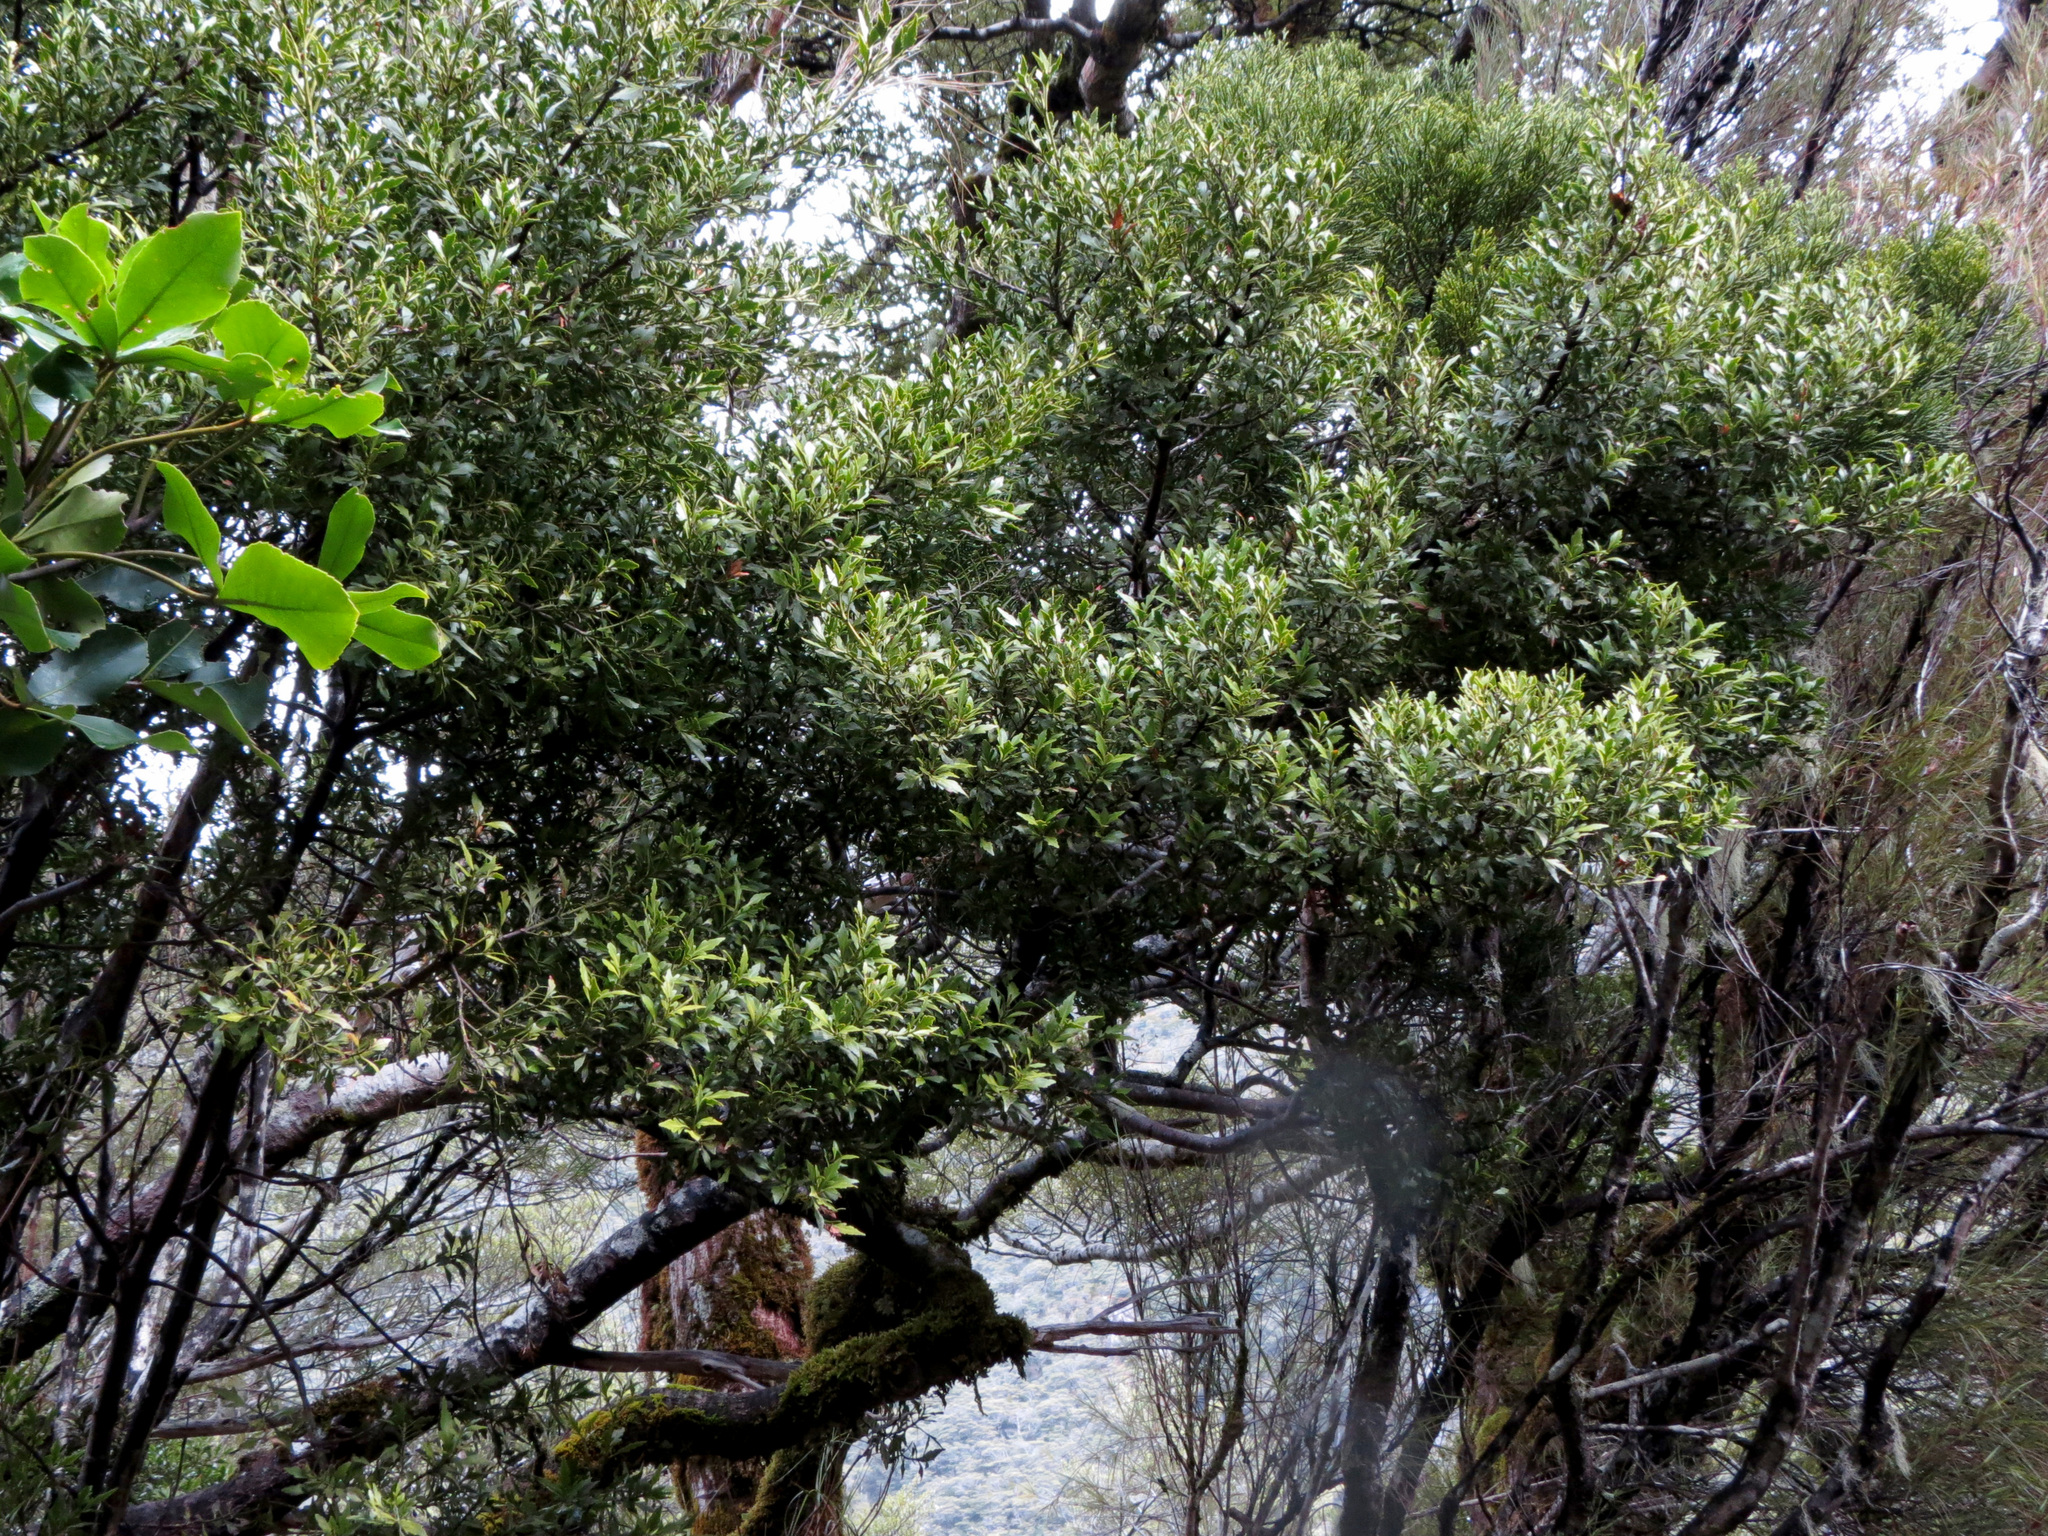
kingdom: Plantae
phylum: Tracheophyta
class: Pinopsida
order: Pinales
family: Phyllocladaceae
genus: Phyllocladus
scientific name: Phyllocladus trichomanoides
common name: Celery pine
